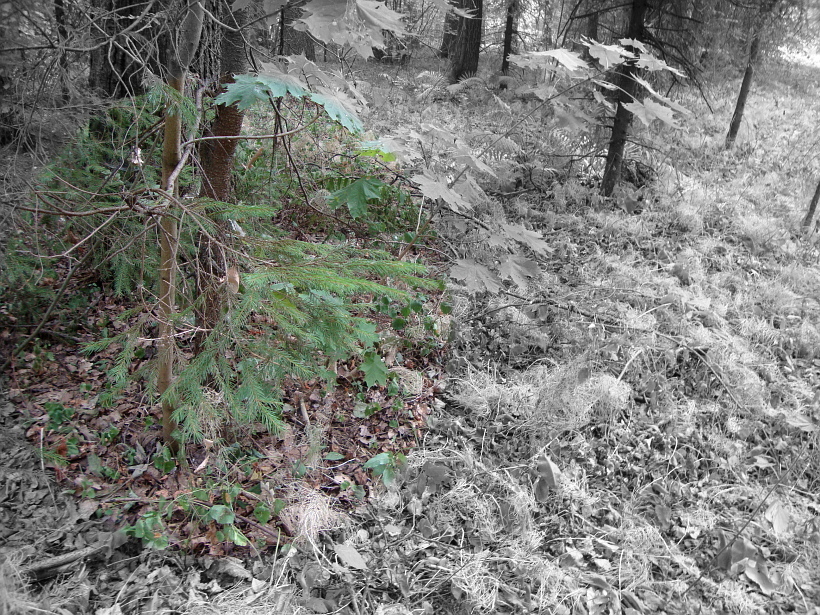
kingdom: Plantae
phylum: Tracheophyta
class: Pinopsida
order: Pinales
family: Pinaceae
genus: Picea
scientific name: Picea abies
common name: Norway spruce
